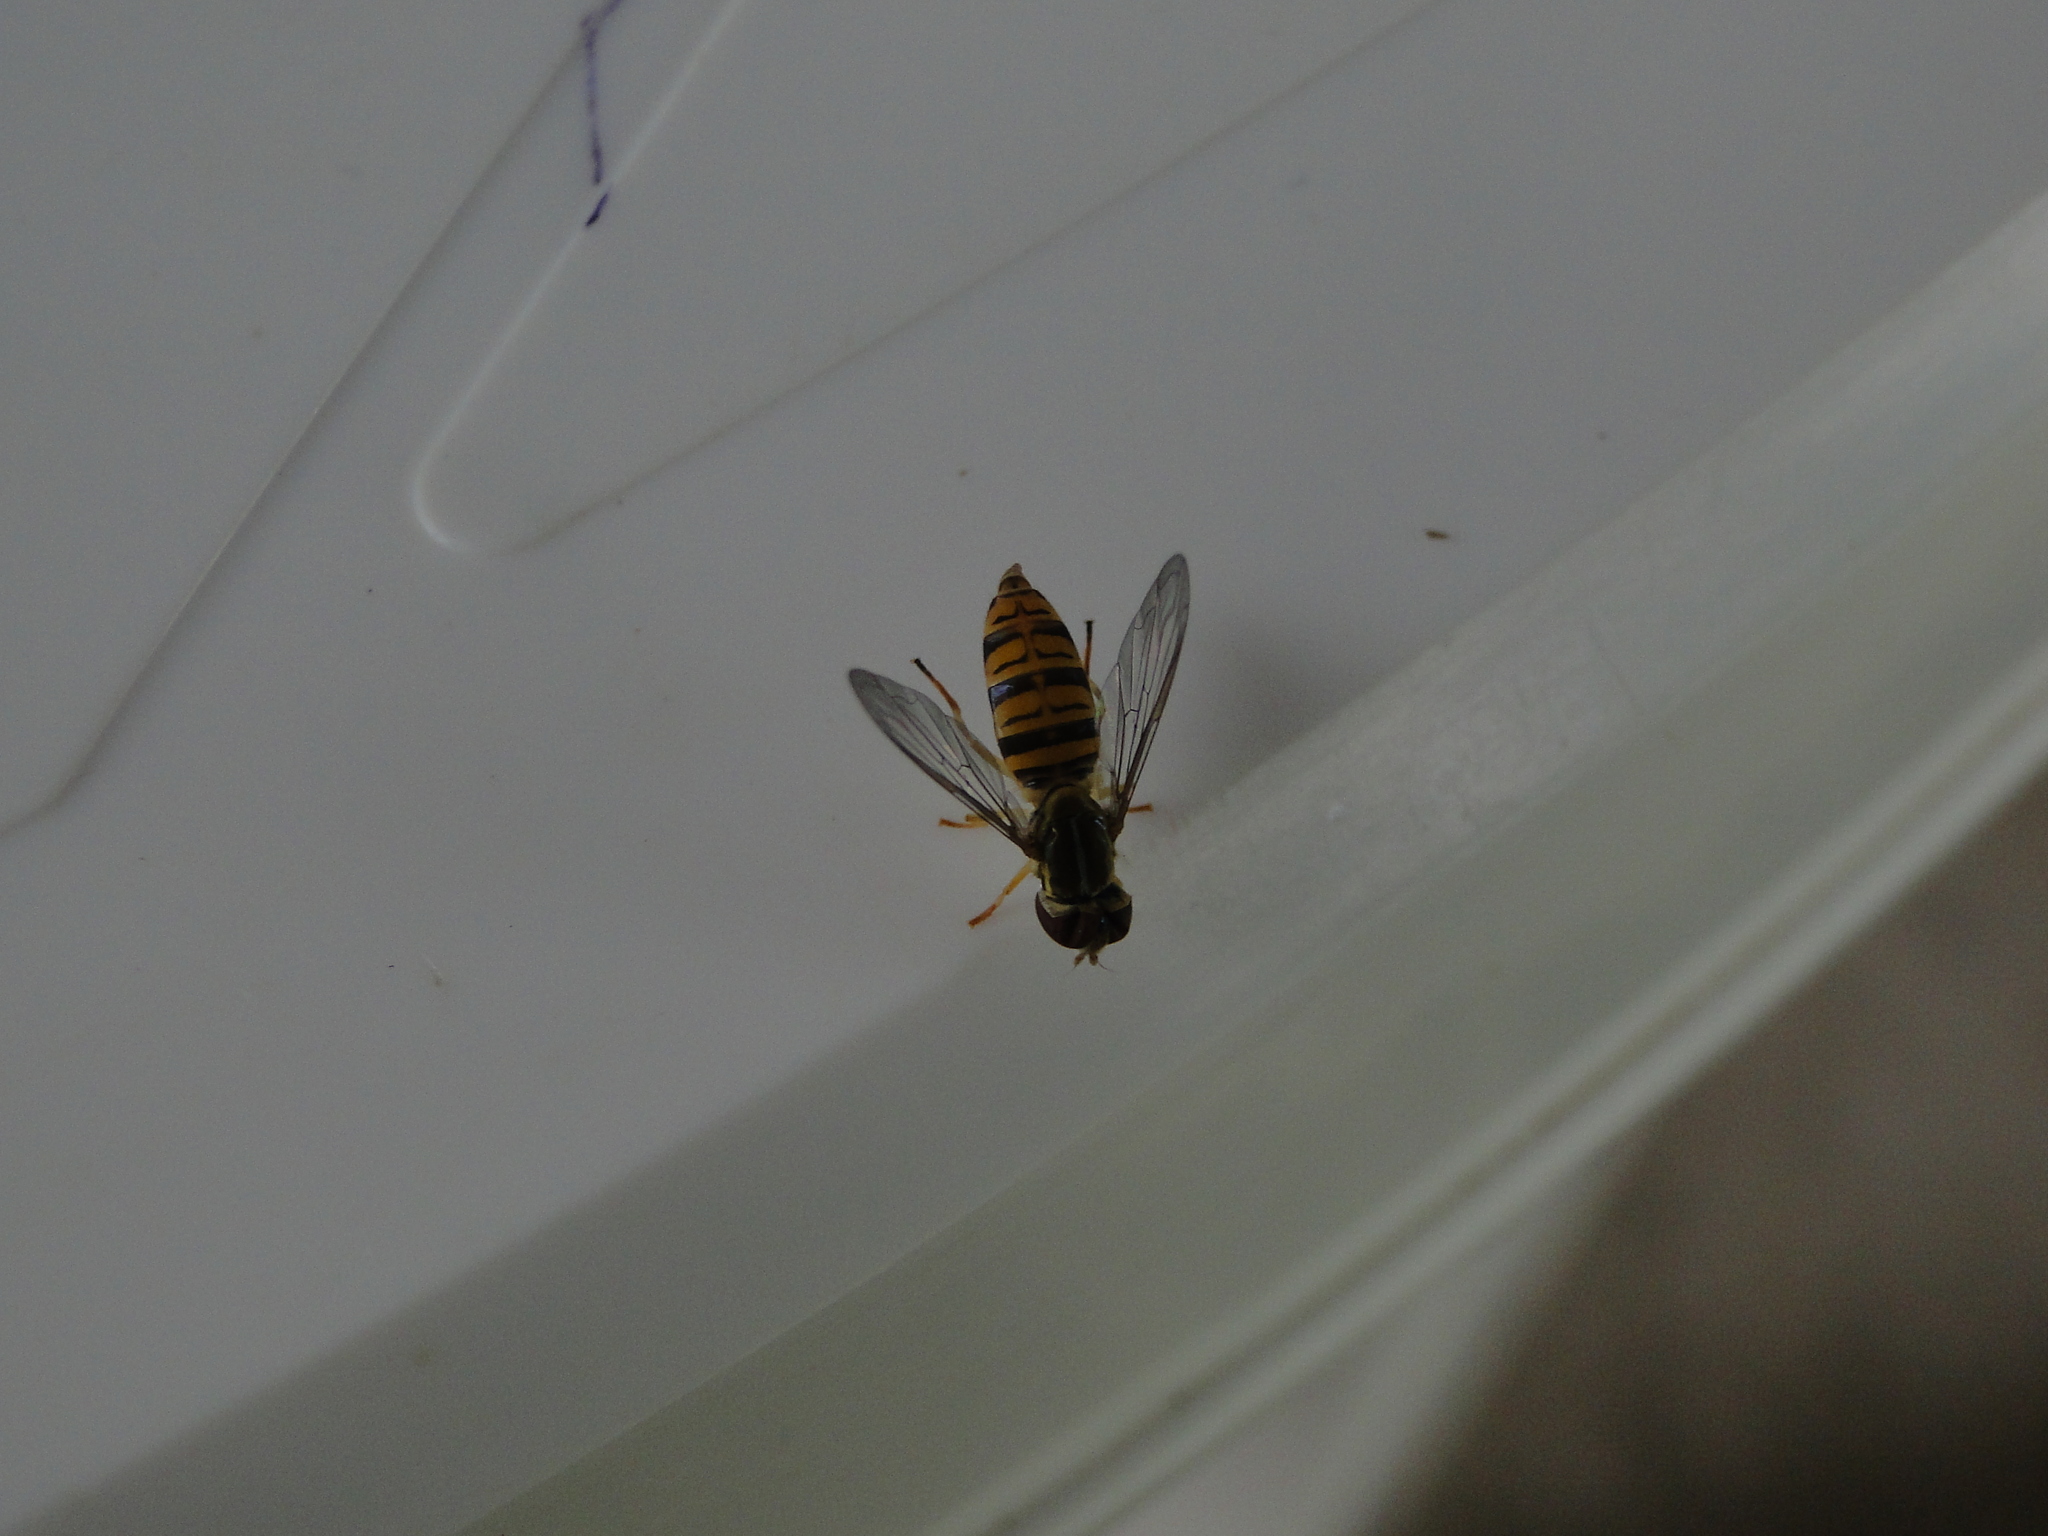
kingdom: Animalia
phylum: Arthropoda
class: Insecta
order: Diptera
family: Syrphidae
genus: Toxomerus
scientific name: Toxomerus politus
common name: Maize calligrapher
